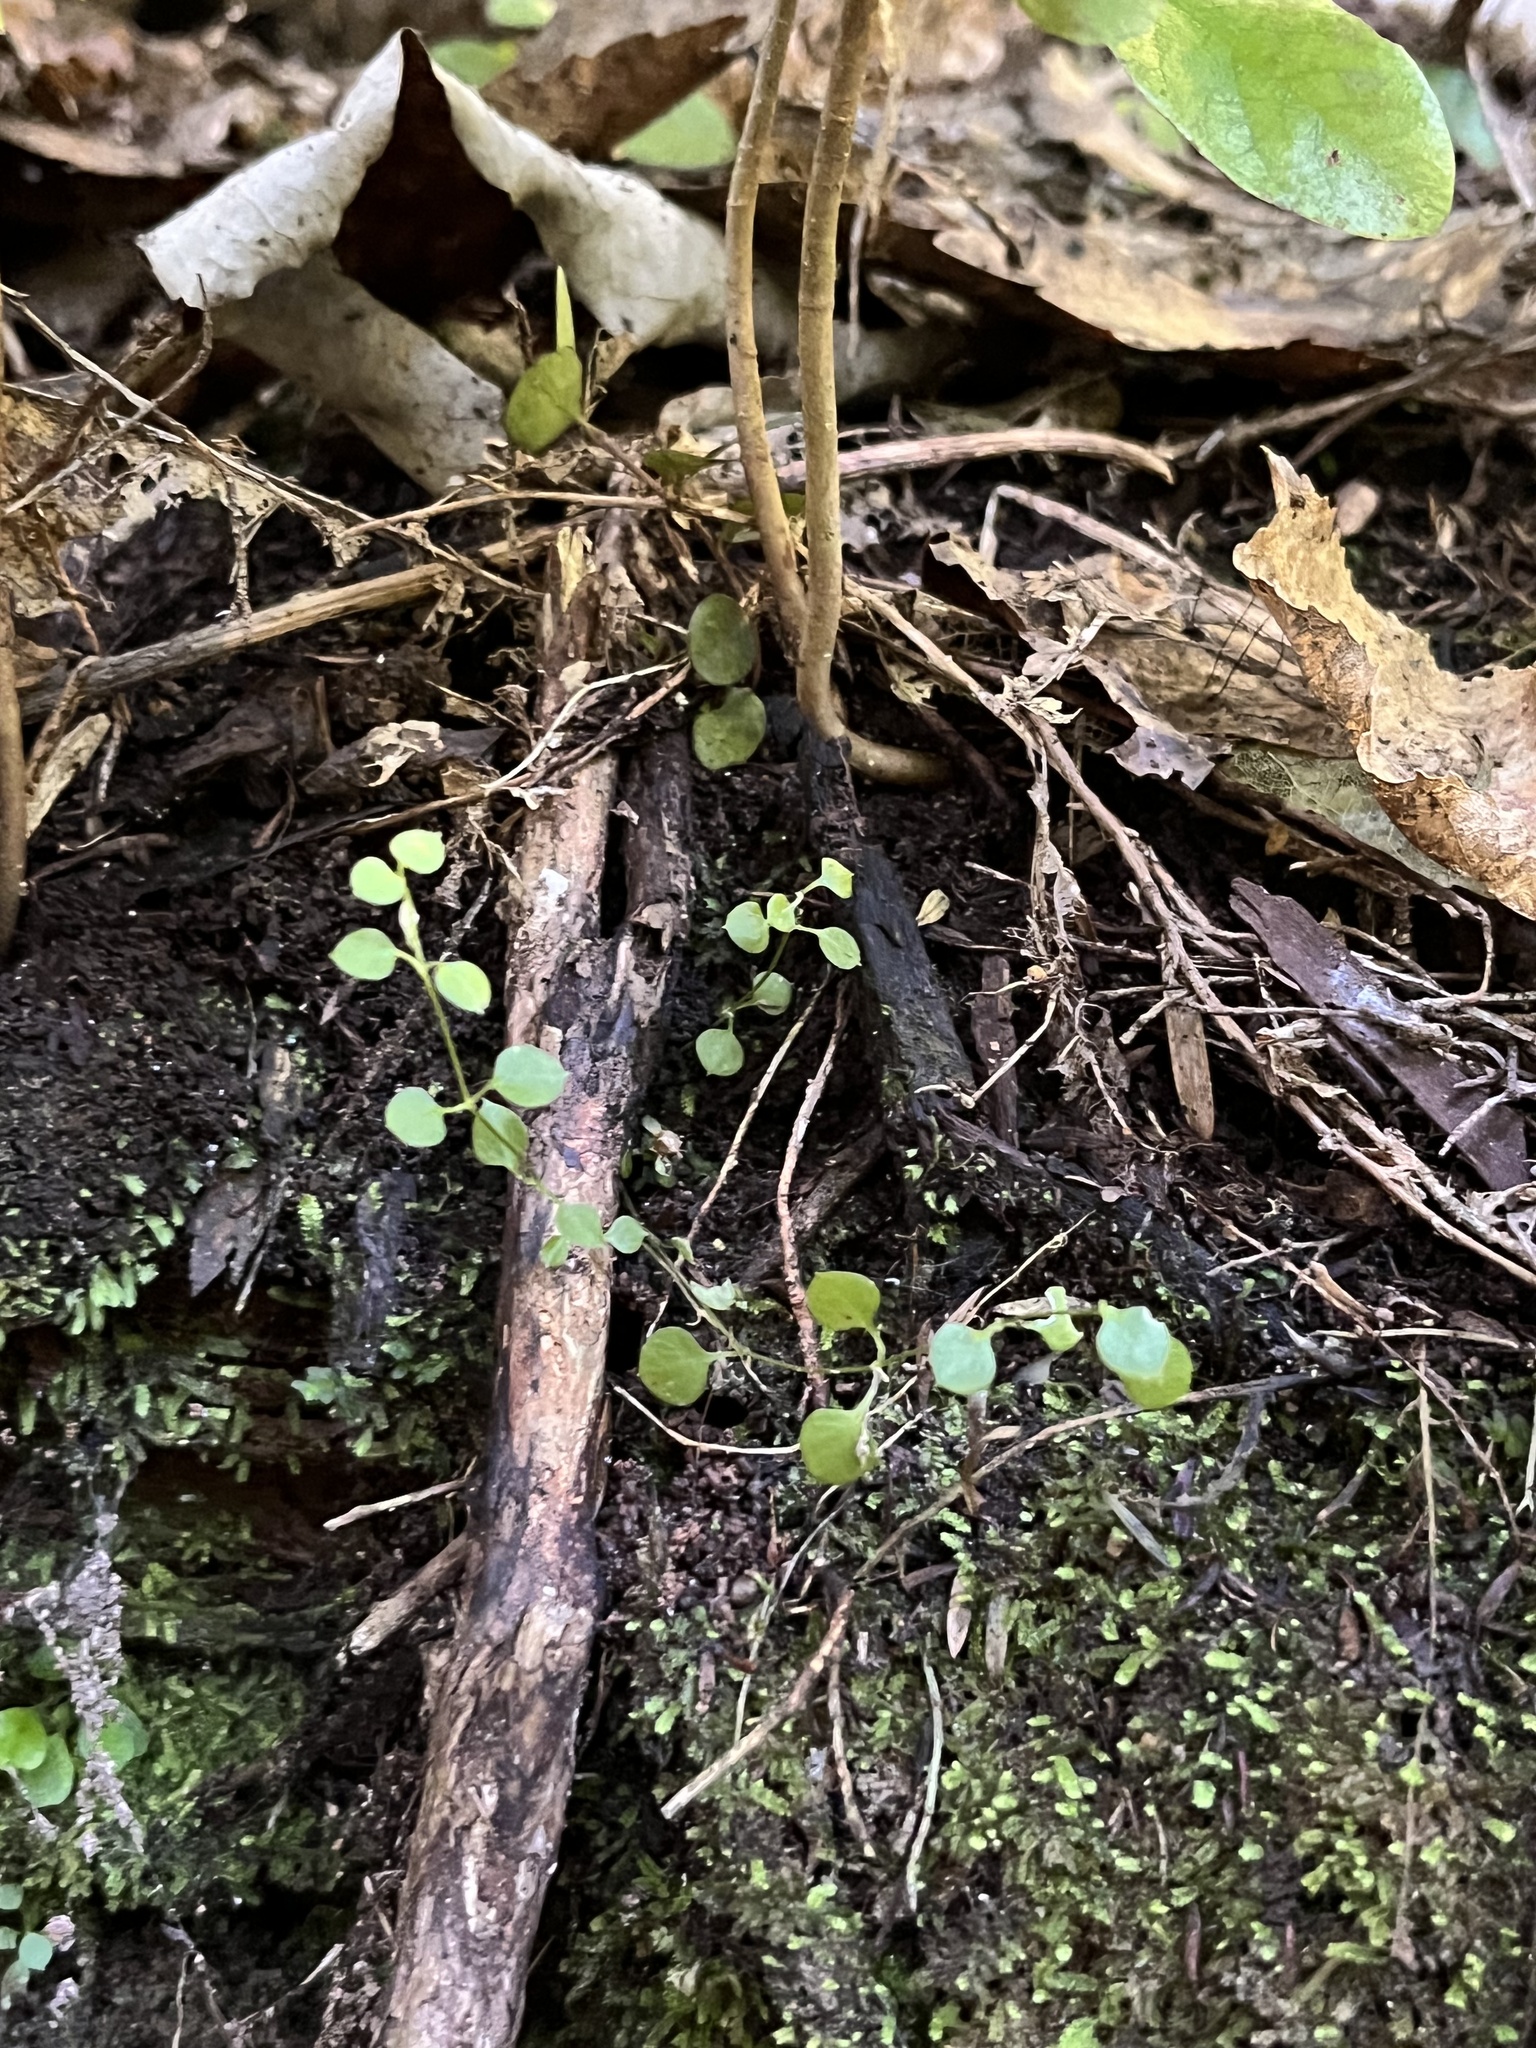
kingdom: Plantae
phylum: Tracheophyta
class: Magnoliopsida
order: Caryophyllales
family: Caryophyllaceae
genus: Stellaria
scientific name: Stellaria parviflora
